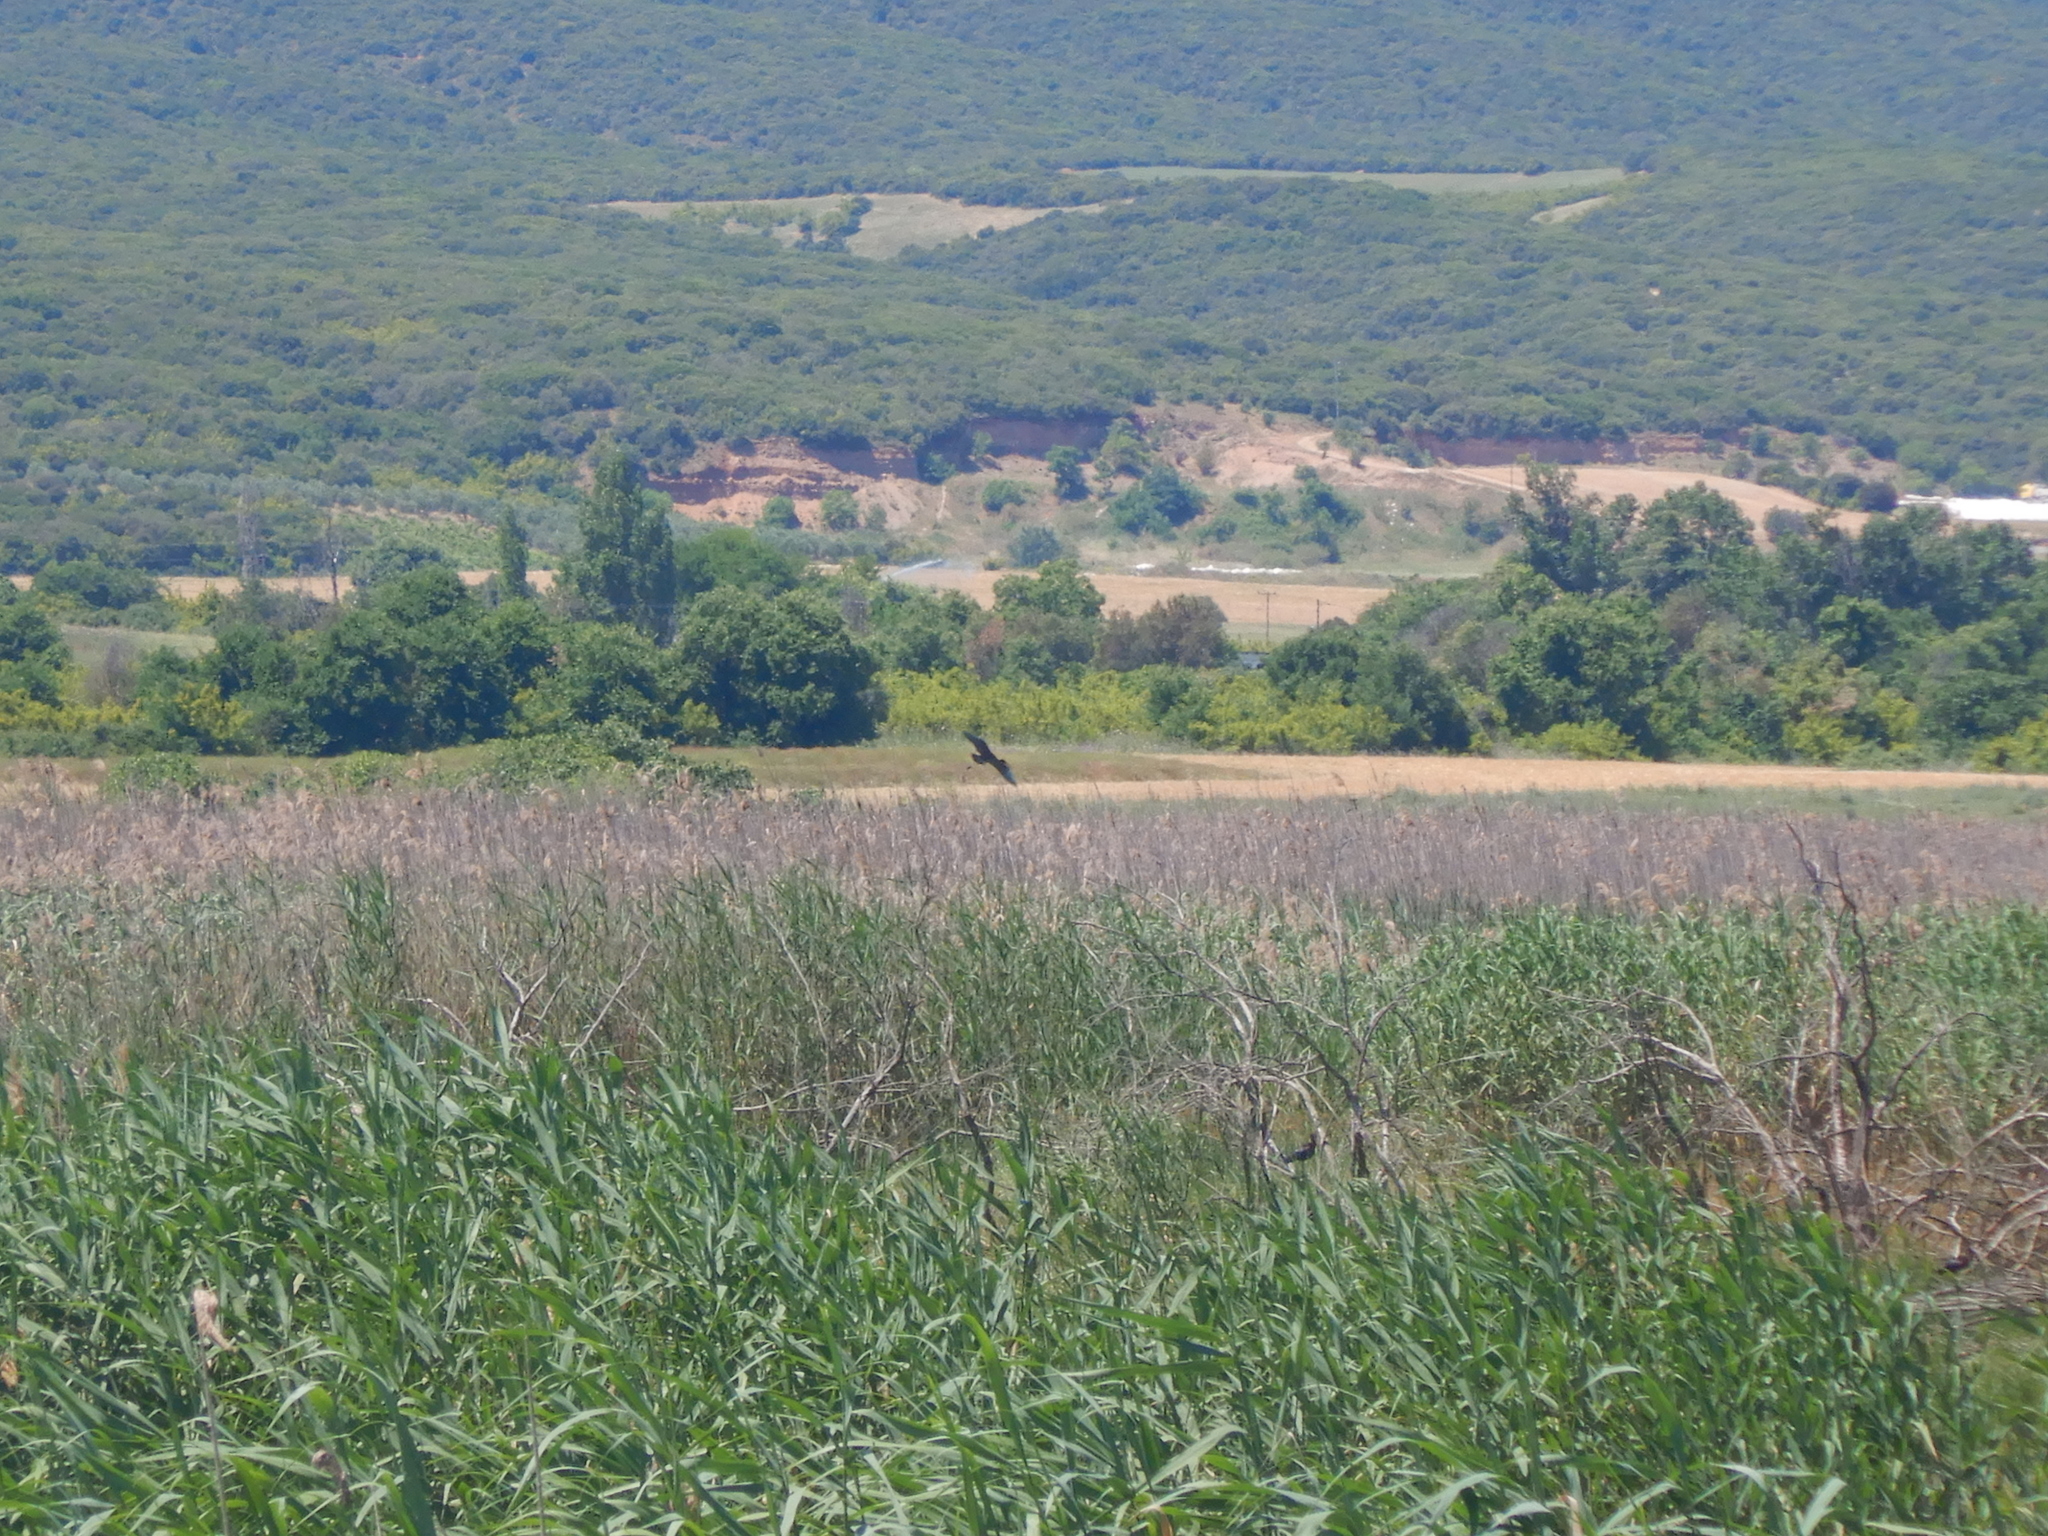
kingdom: Animalia
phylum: Chordata
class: Aves
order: Pelecaniformes
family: Threskiornithidae
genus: Plegadis
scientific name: Plegadis falcinellus
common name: Glossy ibis
